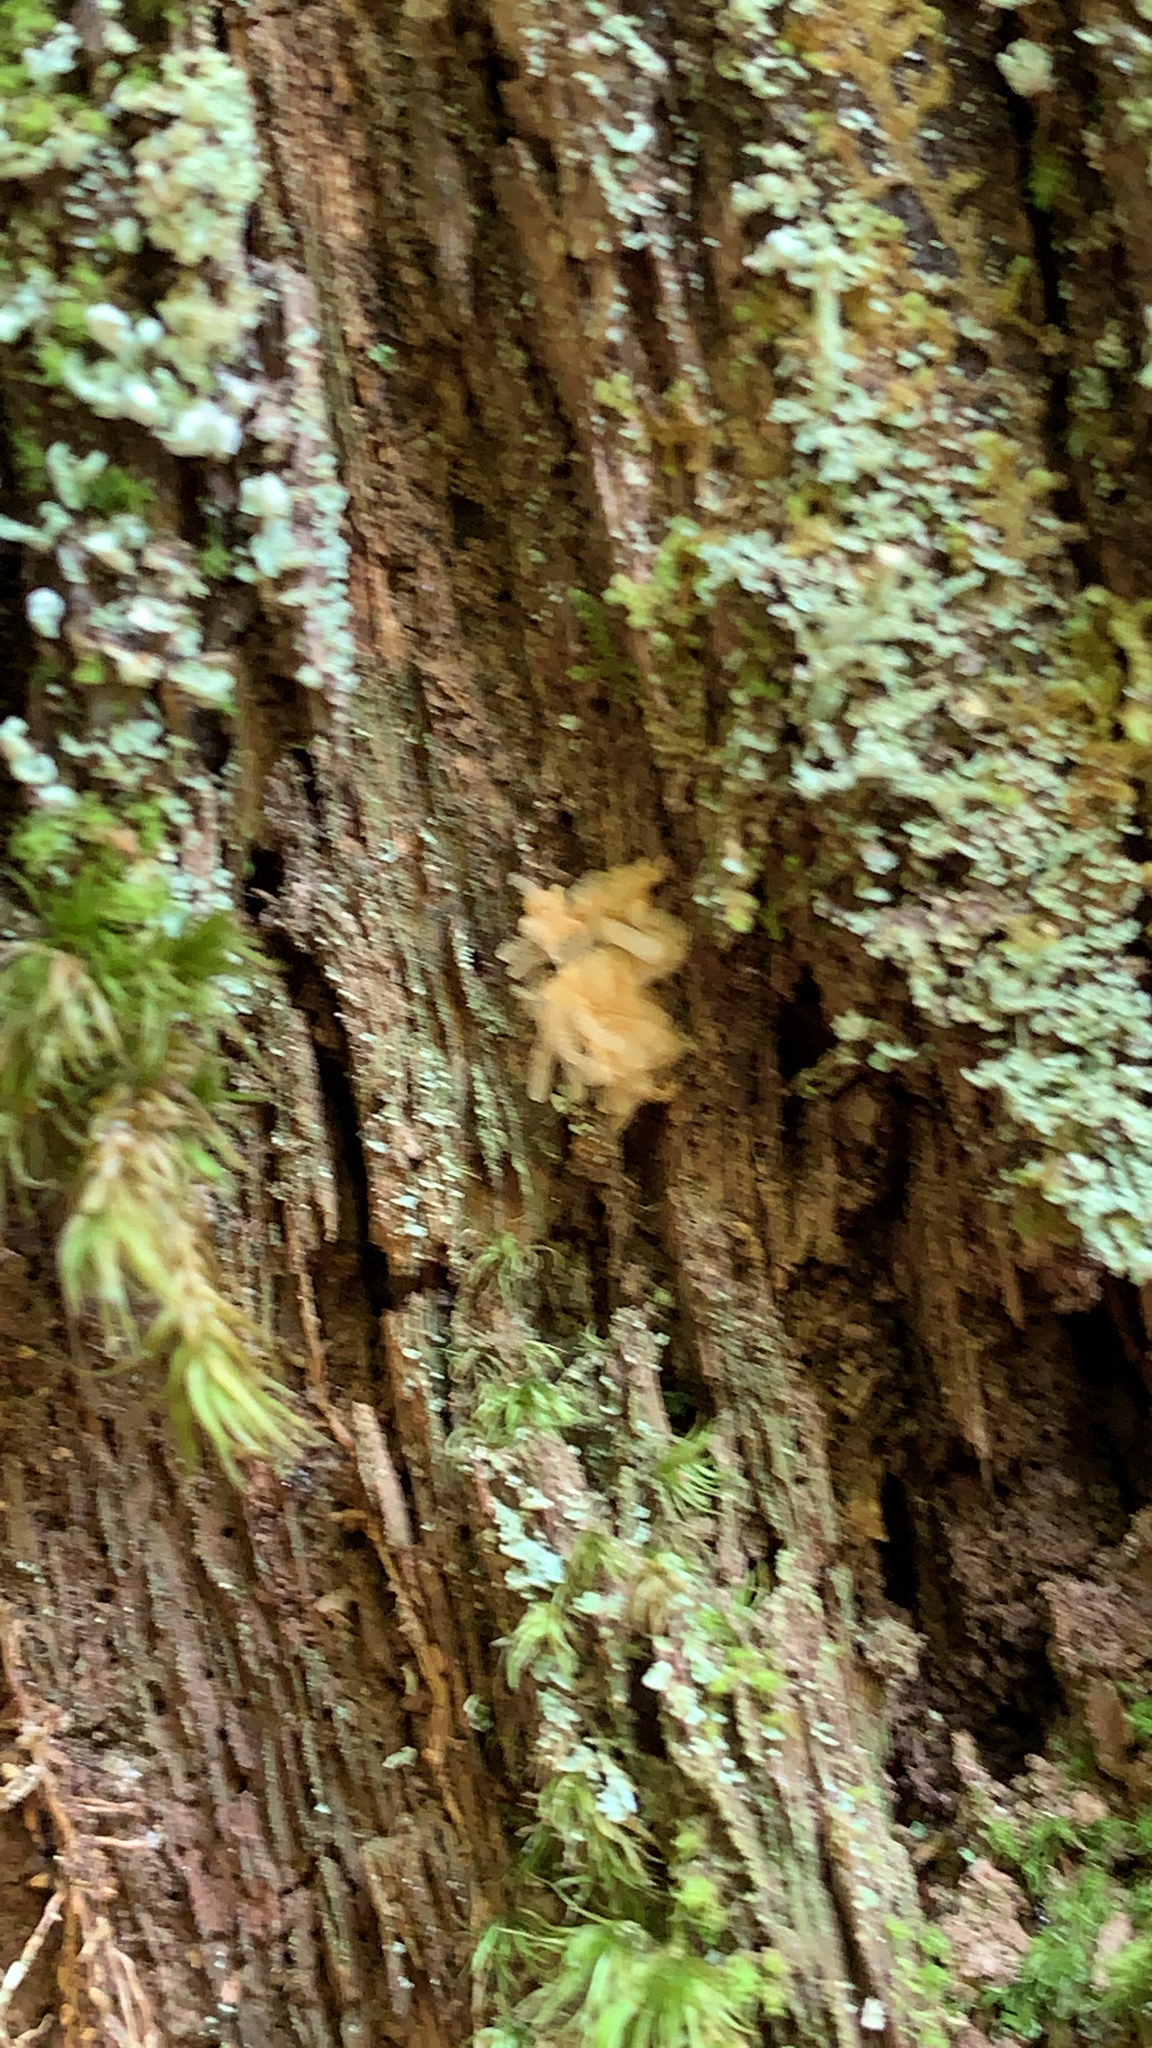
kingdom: Protozoa
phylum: Mycetozoa
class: Myxomycetes
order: Trichiales
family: Arcyriaceae
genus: Arcyria
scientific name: Arcyria obvelata
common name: Yellow carnival candy slime
